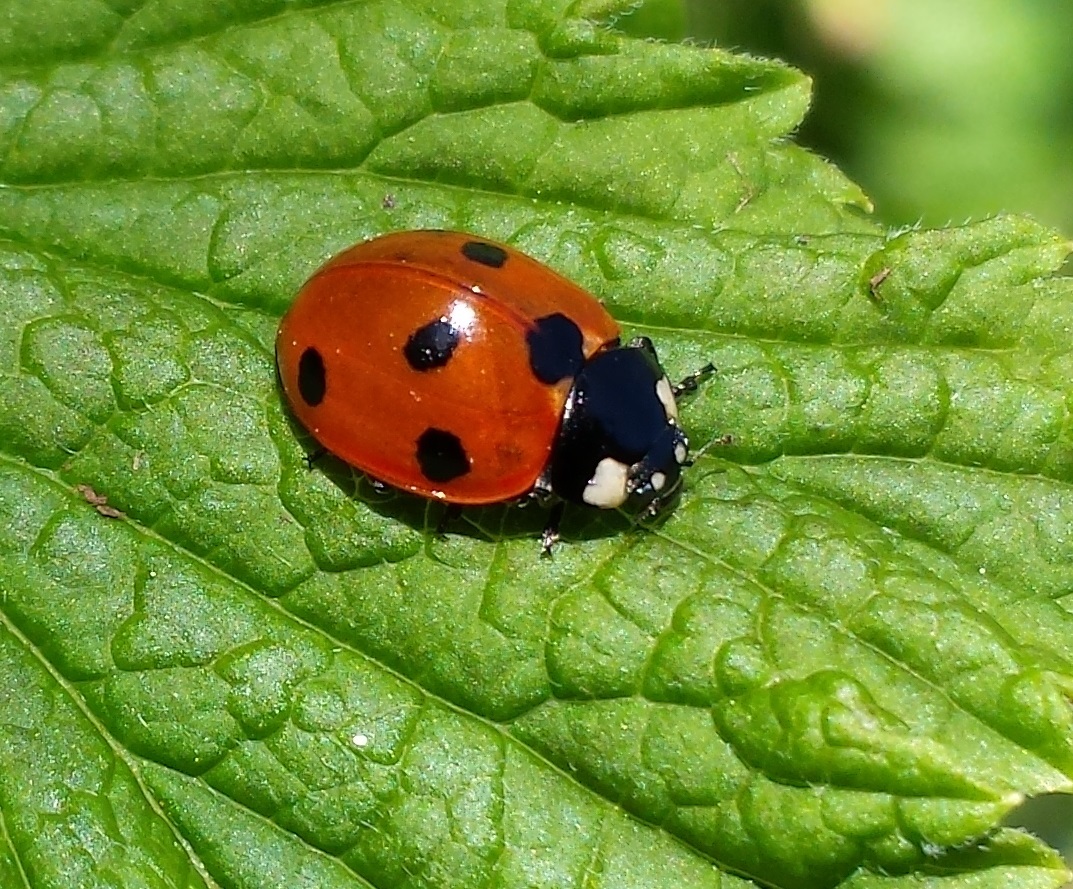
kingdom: Animalia
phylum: Arthropoda
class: Insecta
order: Coleoptera
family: Coccinellidae
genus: Coccinella
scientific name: Coccinella septempunctata
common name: Sevenspotted lady beetle
